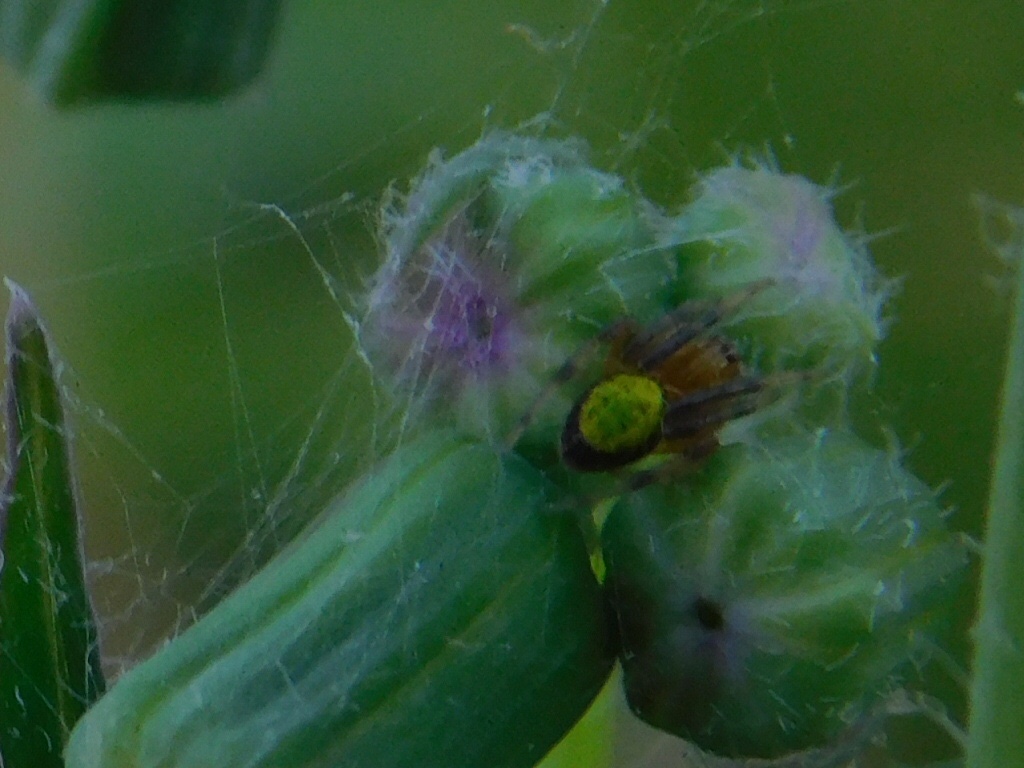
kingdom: Animalia
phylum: Arthropoda
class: Arachnida
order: Araneae
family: Araneidae
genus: Eriophora
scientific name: Eriophora ravilla
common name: Orb weavers
